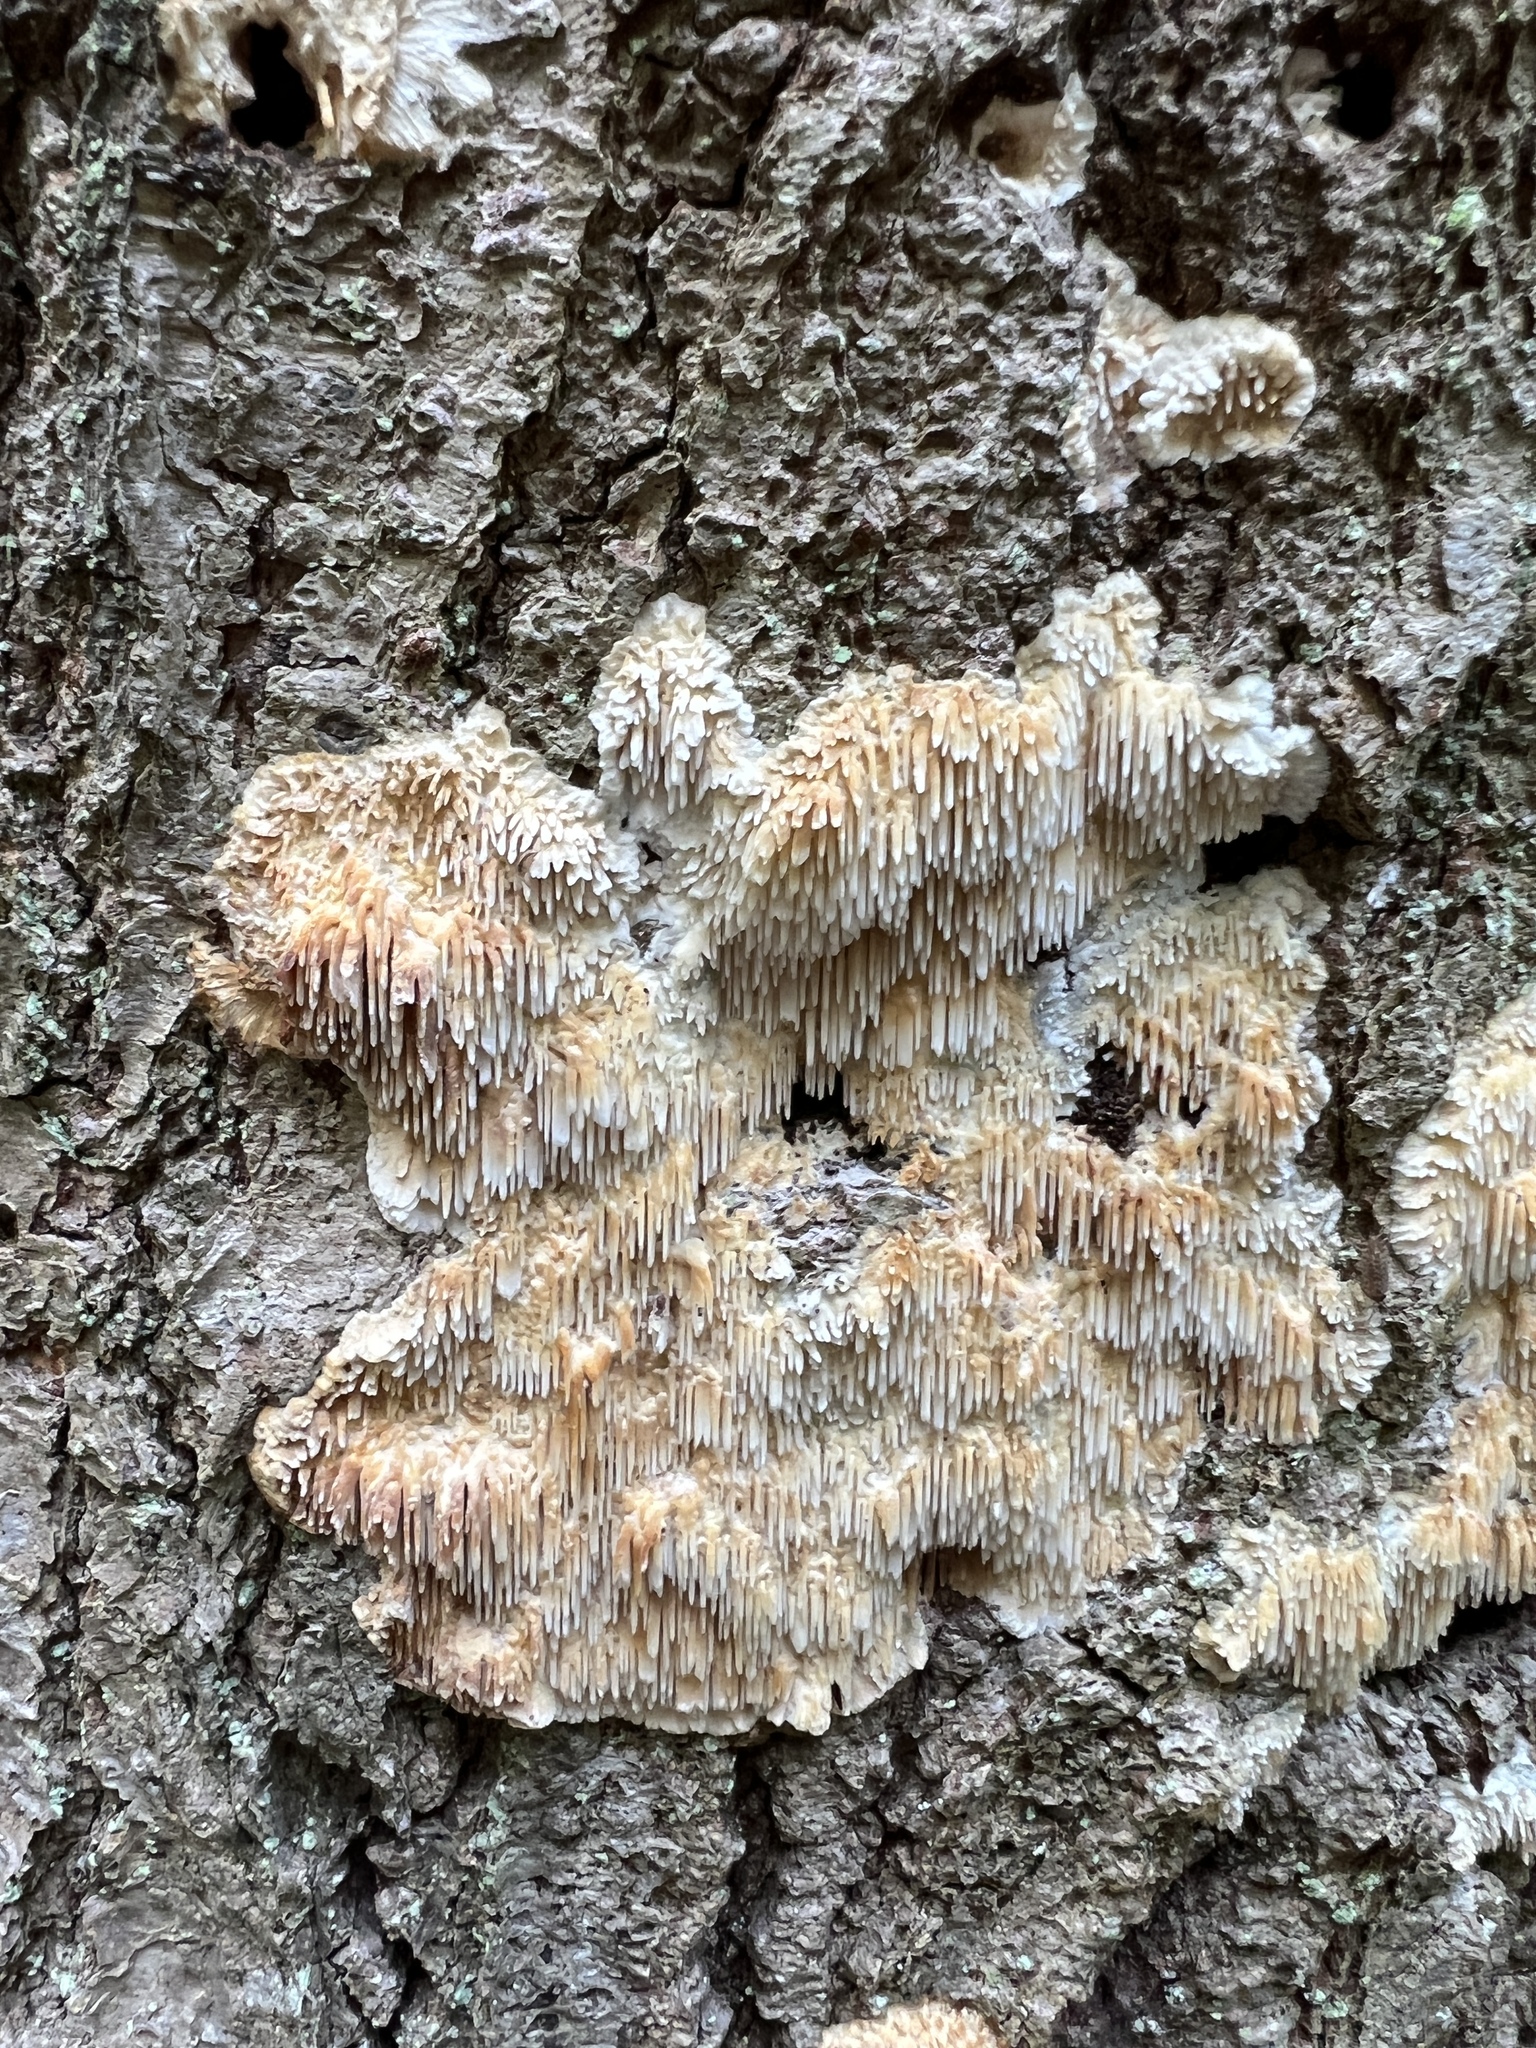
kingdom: Fungi
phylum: Basidiomycota
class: Agaricomycetes
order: Agaricales
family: Radulomycetaceae
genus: Radulomyces
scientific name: Radulomyces copelandii
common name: Asian beauty
